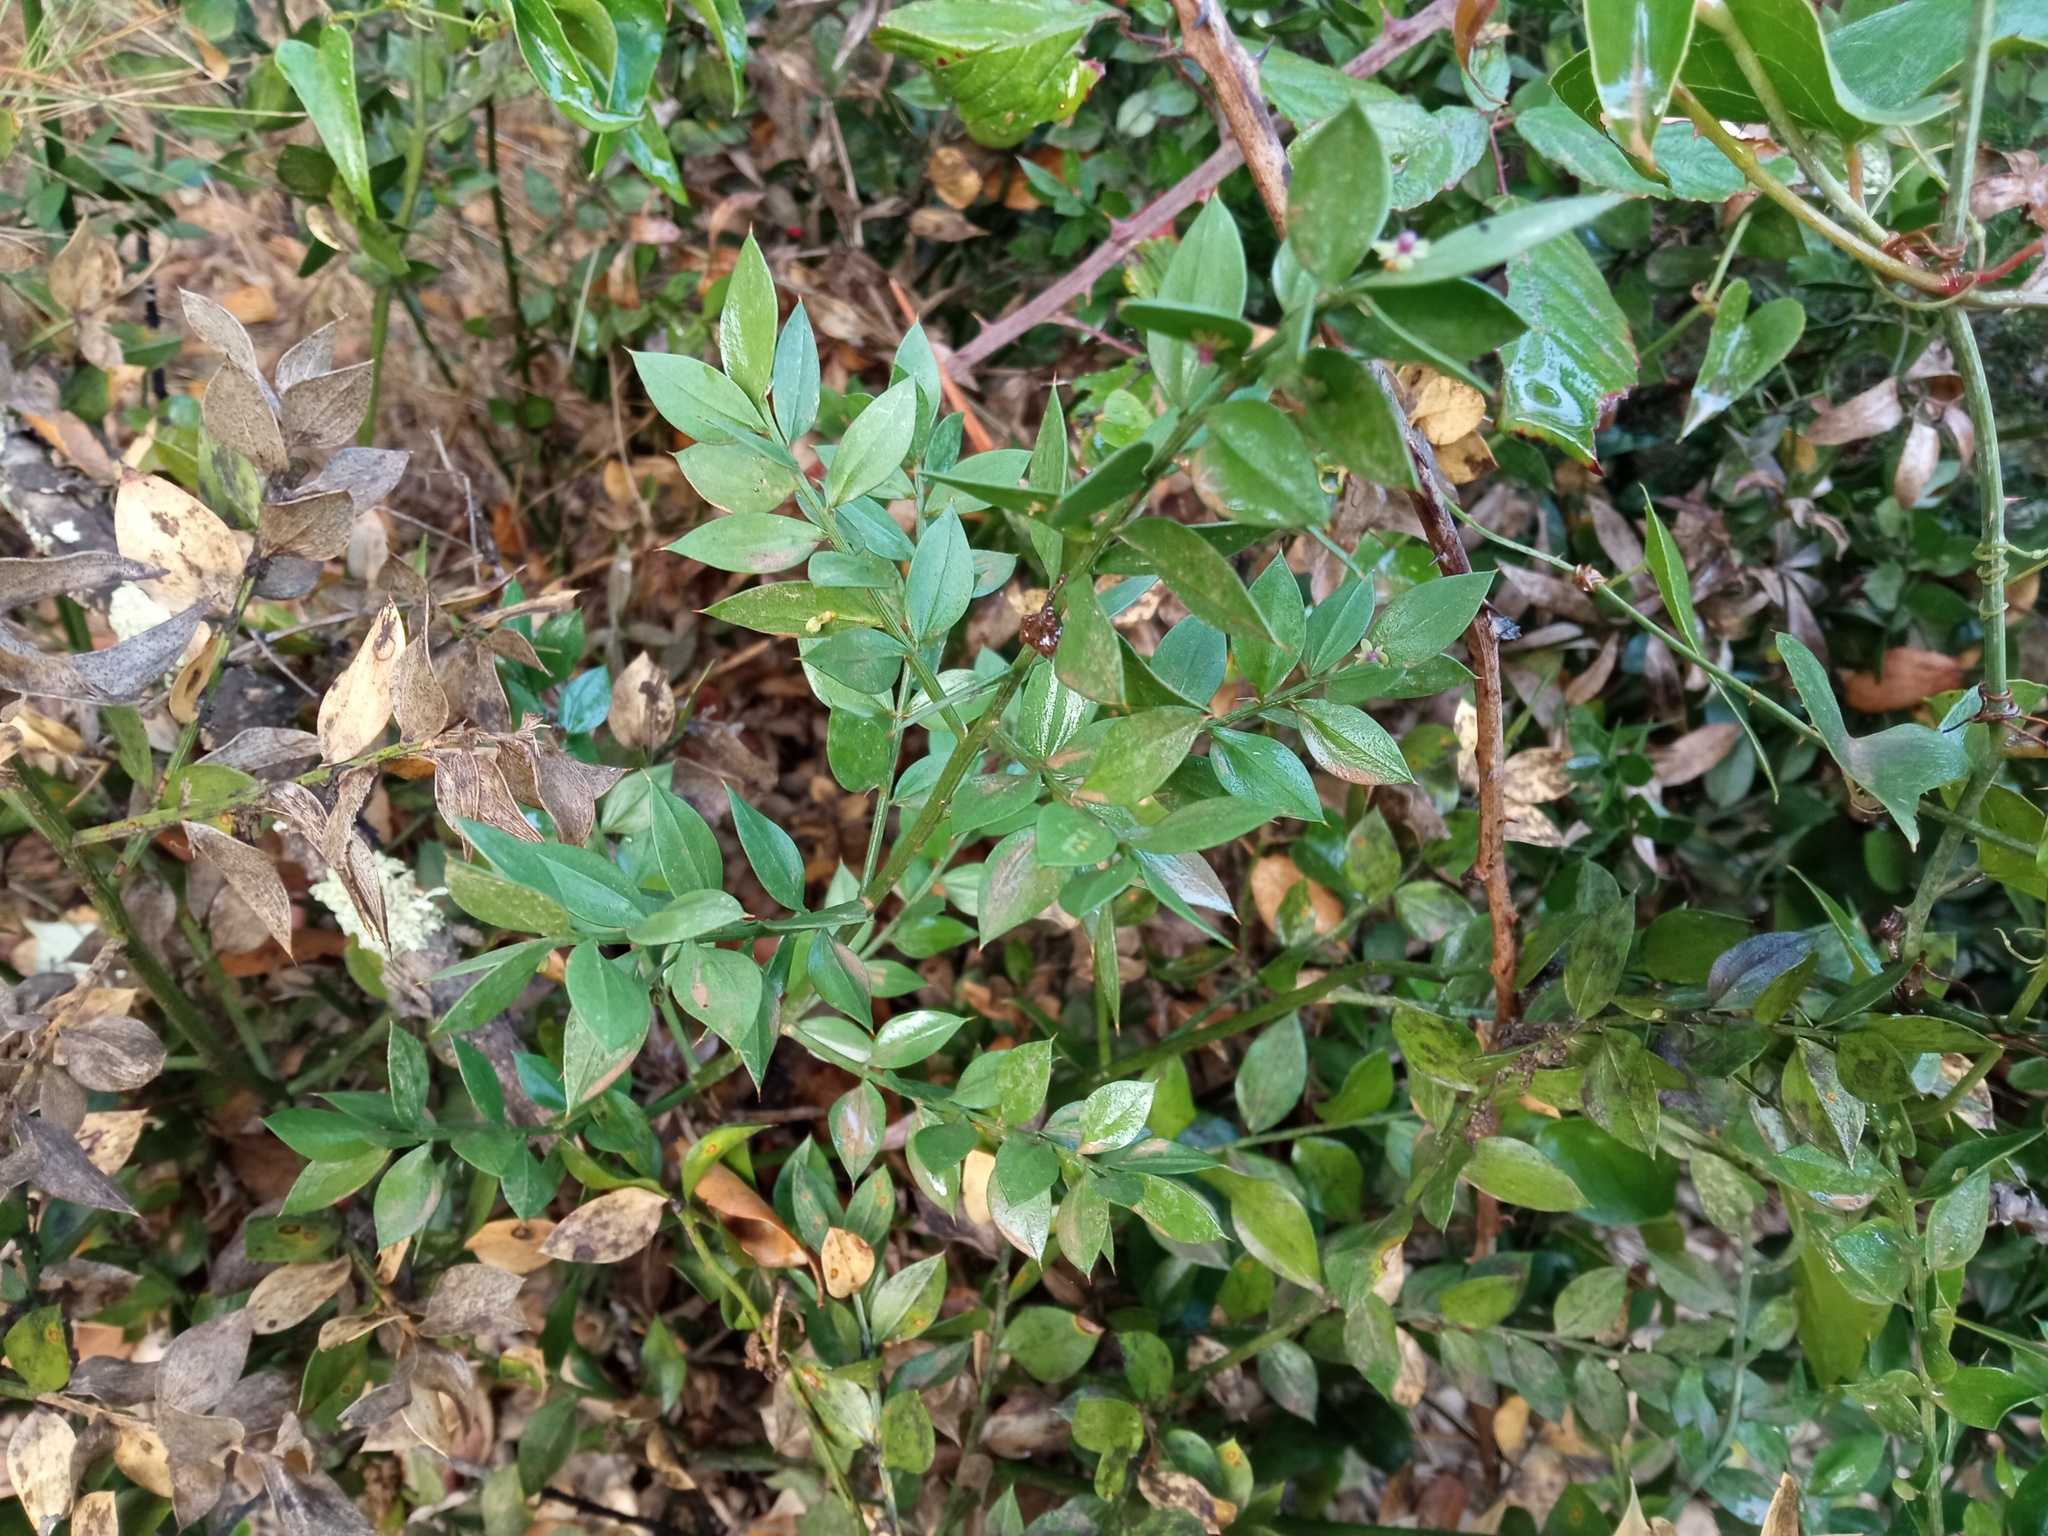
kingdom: Plantae
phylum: Tracheophyta
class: Liliopsida
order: Asparagales
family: Asparagaceae
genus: Ruscus
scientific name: Ruscus aculeatus
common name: Butcher's-broom
